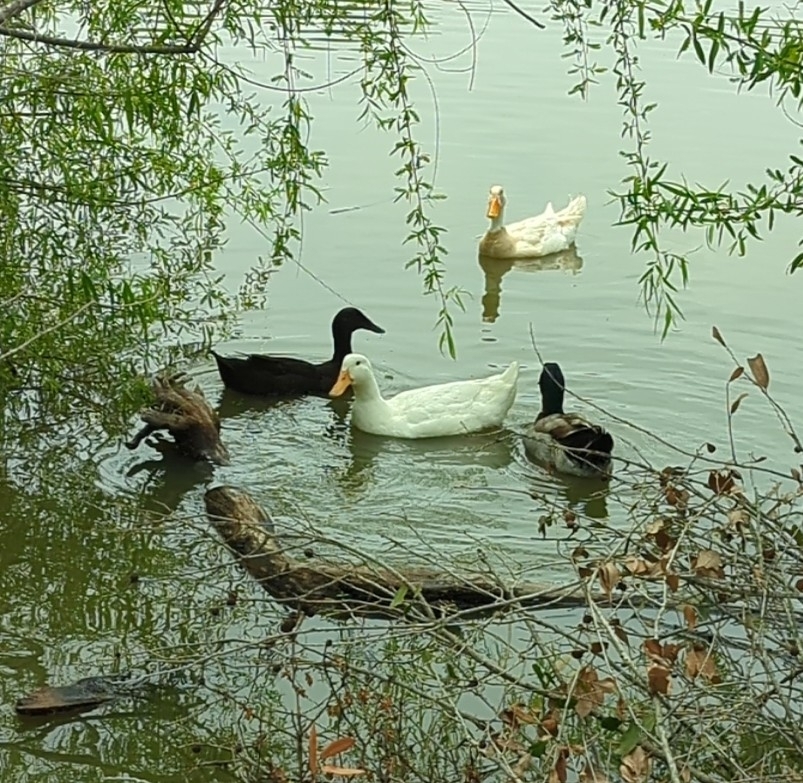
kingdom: Animalia
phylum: Chordata
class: Aves
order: Anseriformes
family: Anatidae
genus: Anas
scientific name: Anas platyrhynchos
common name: Mallard
